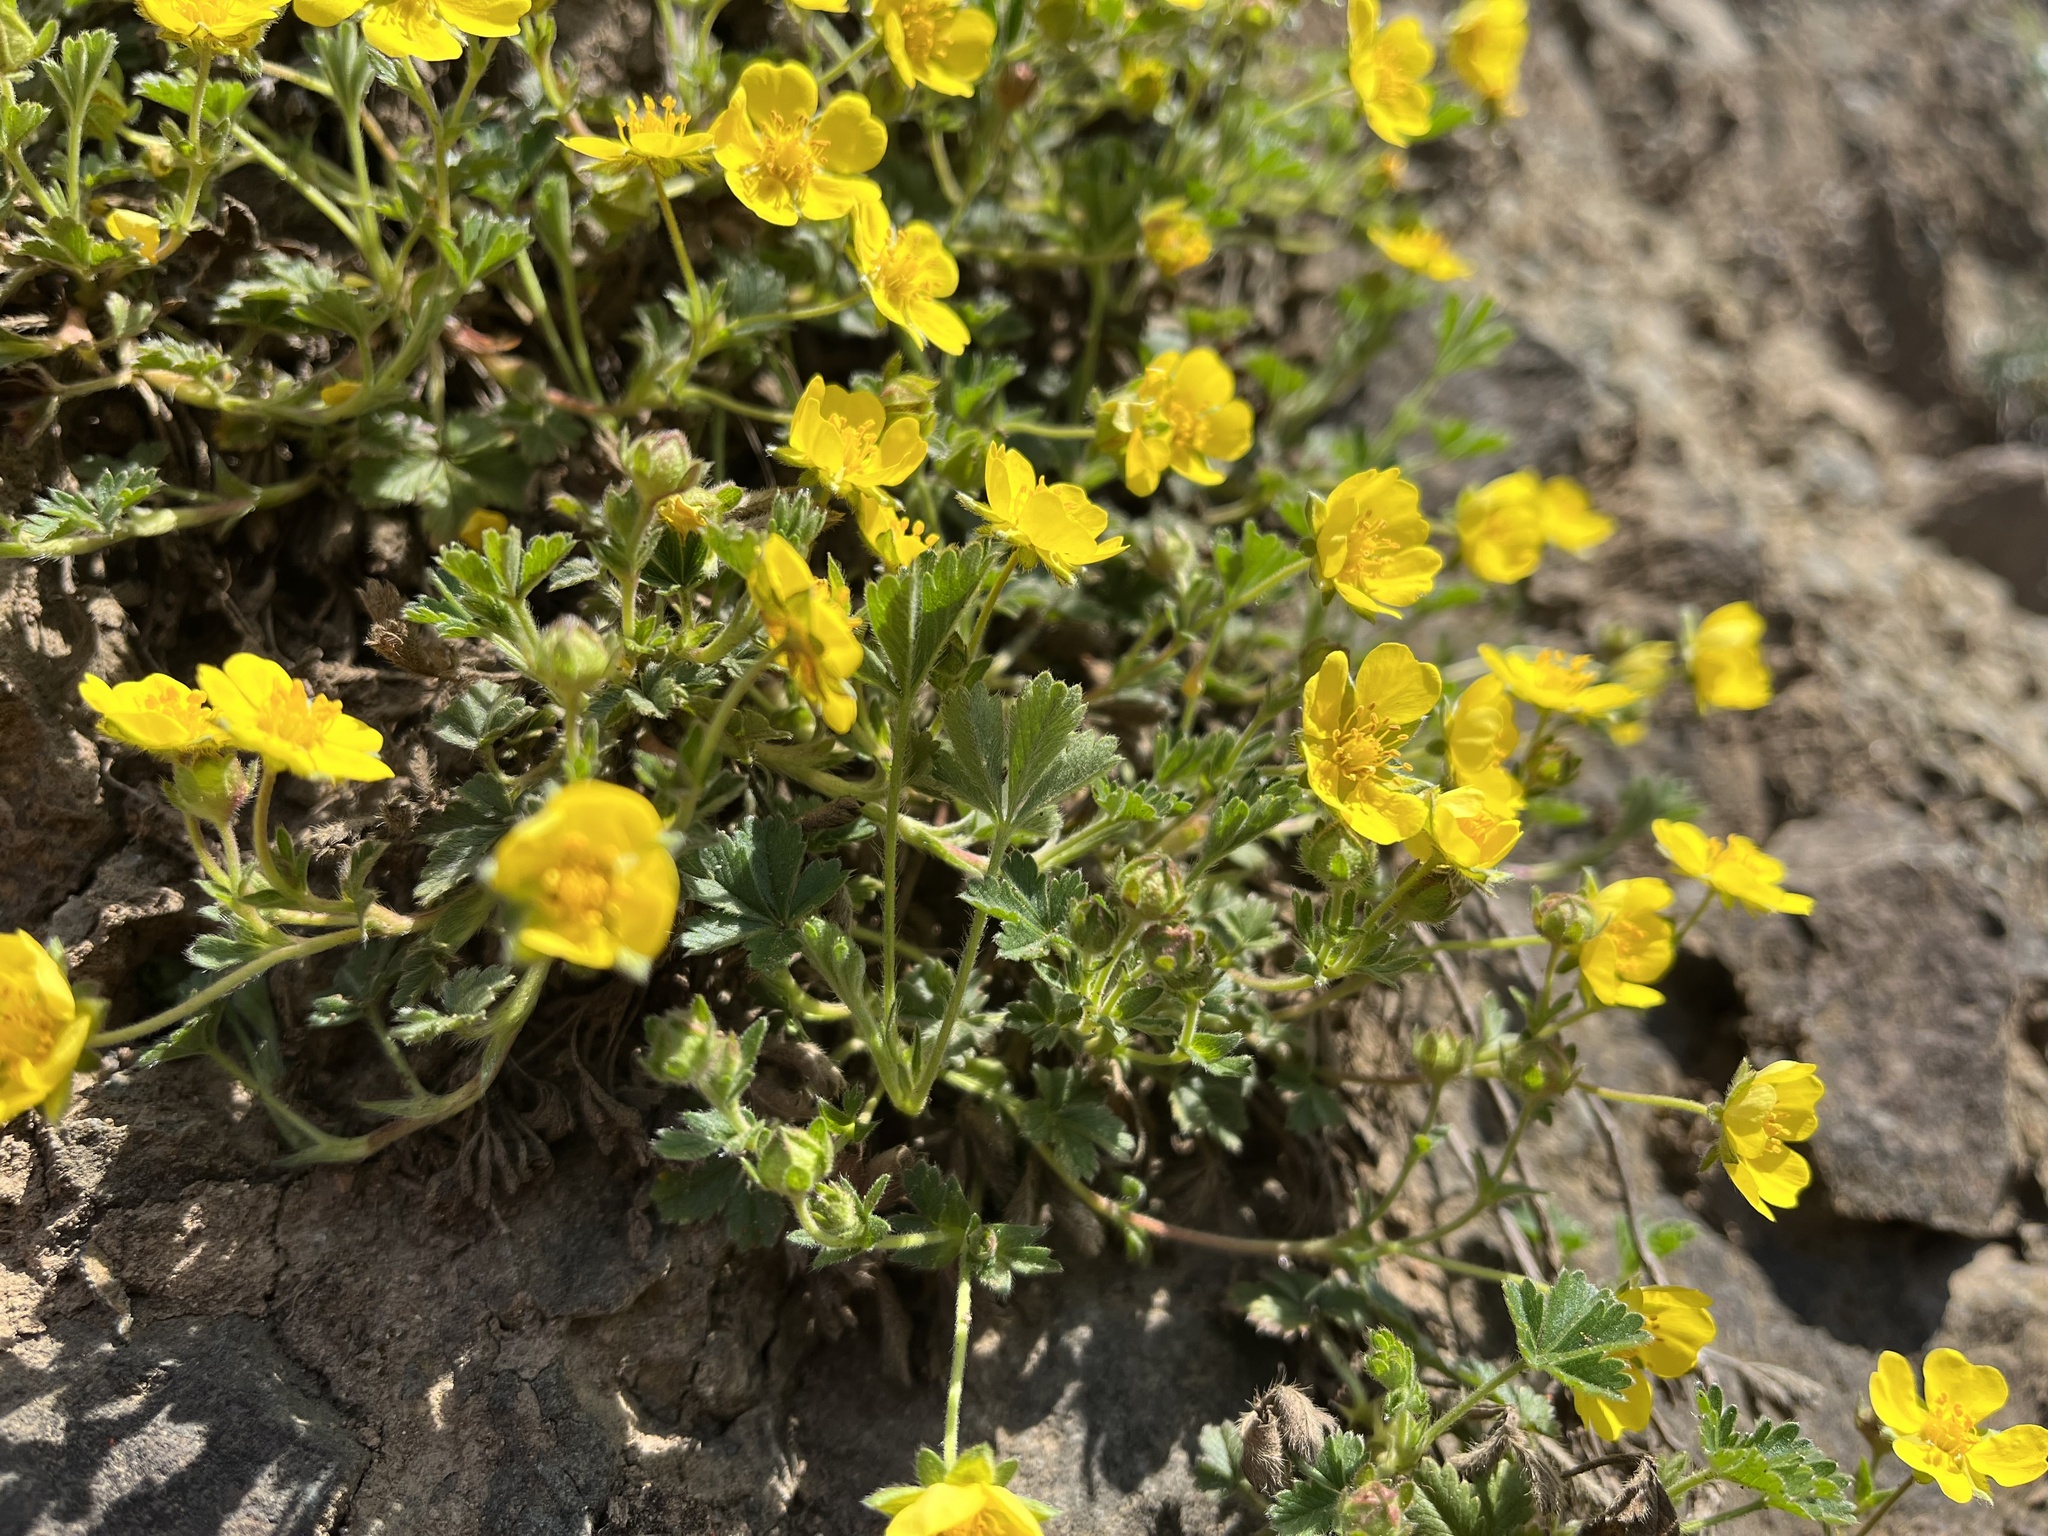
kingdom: Plantae
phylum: Tracheophyta
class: Magnoliopsida
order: Rosales
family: Rosaceae
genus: Potentilla
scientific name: Potentilla incana
